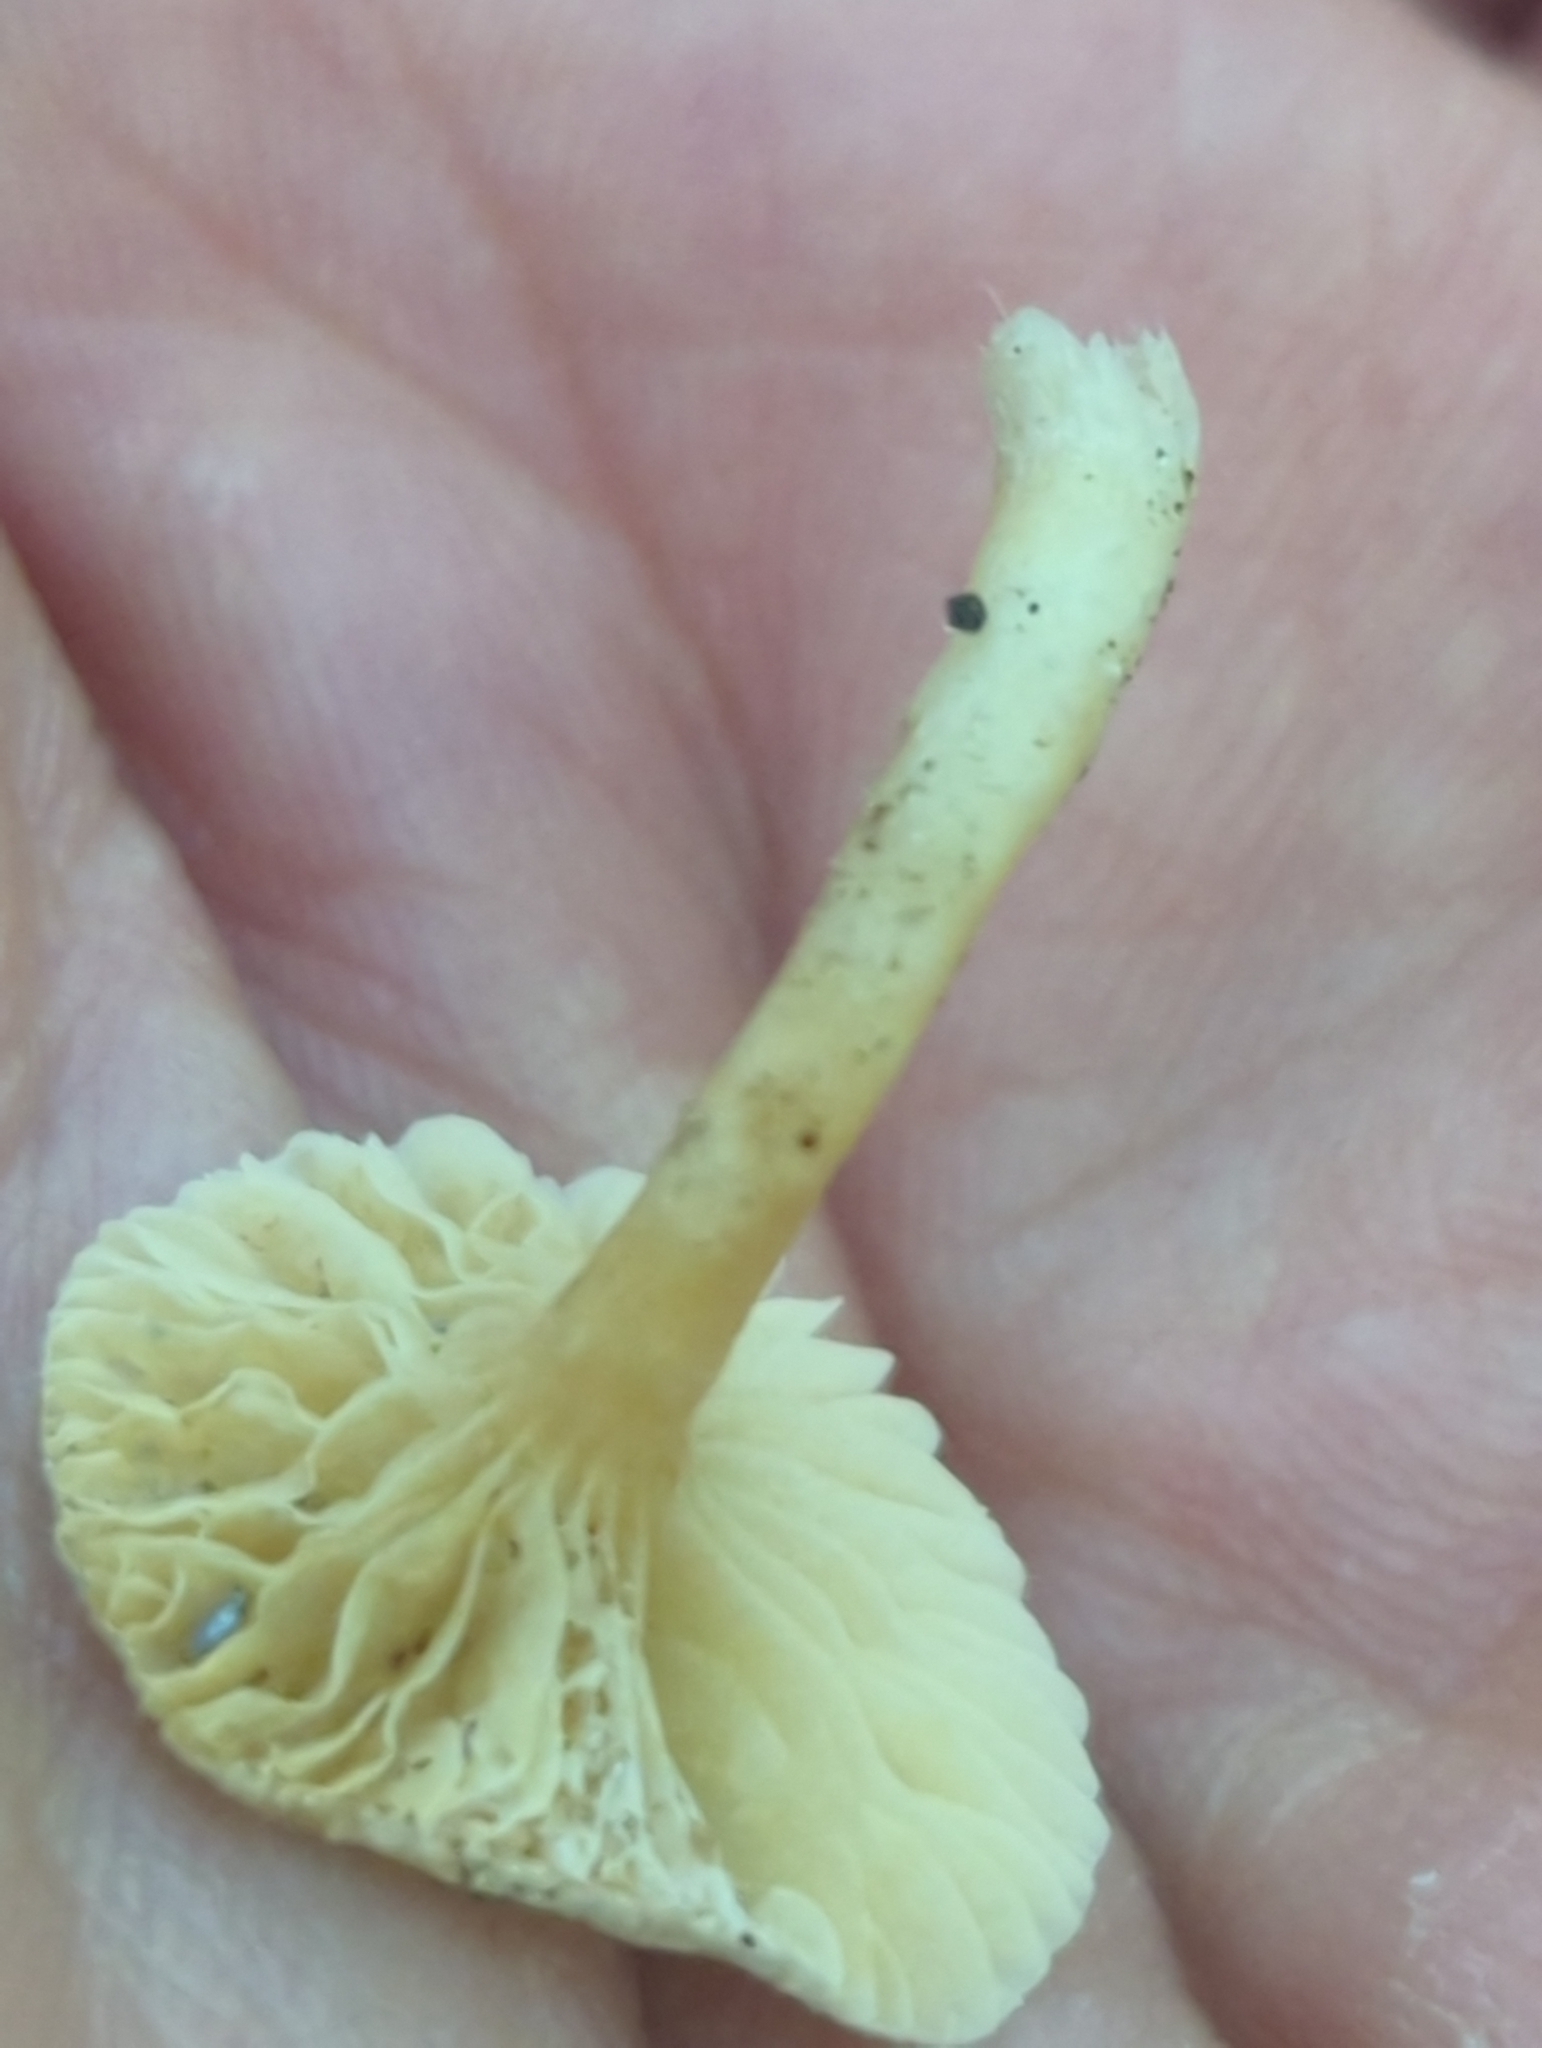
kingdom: Fungi
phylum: Basidiomycota
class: Agaricomycetes
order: Russulales
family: Russulaceae
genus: Lactarius
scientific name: Lactarius griseus
